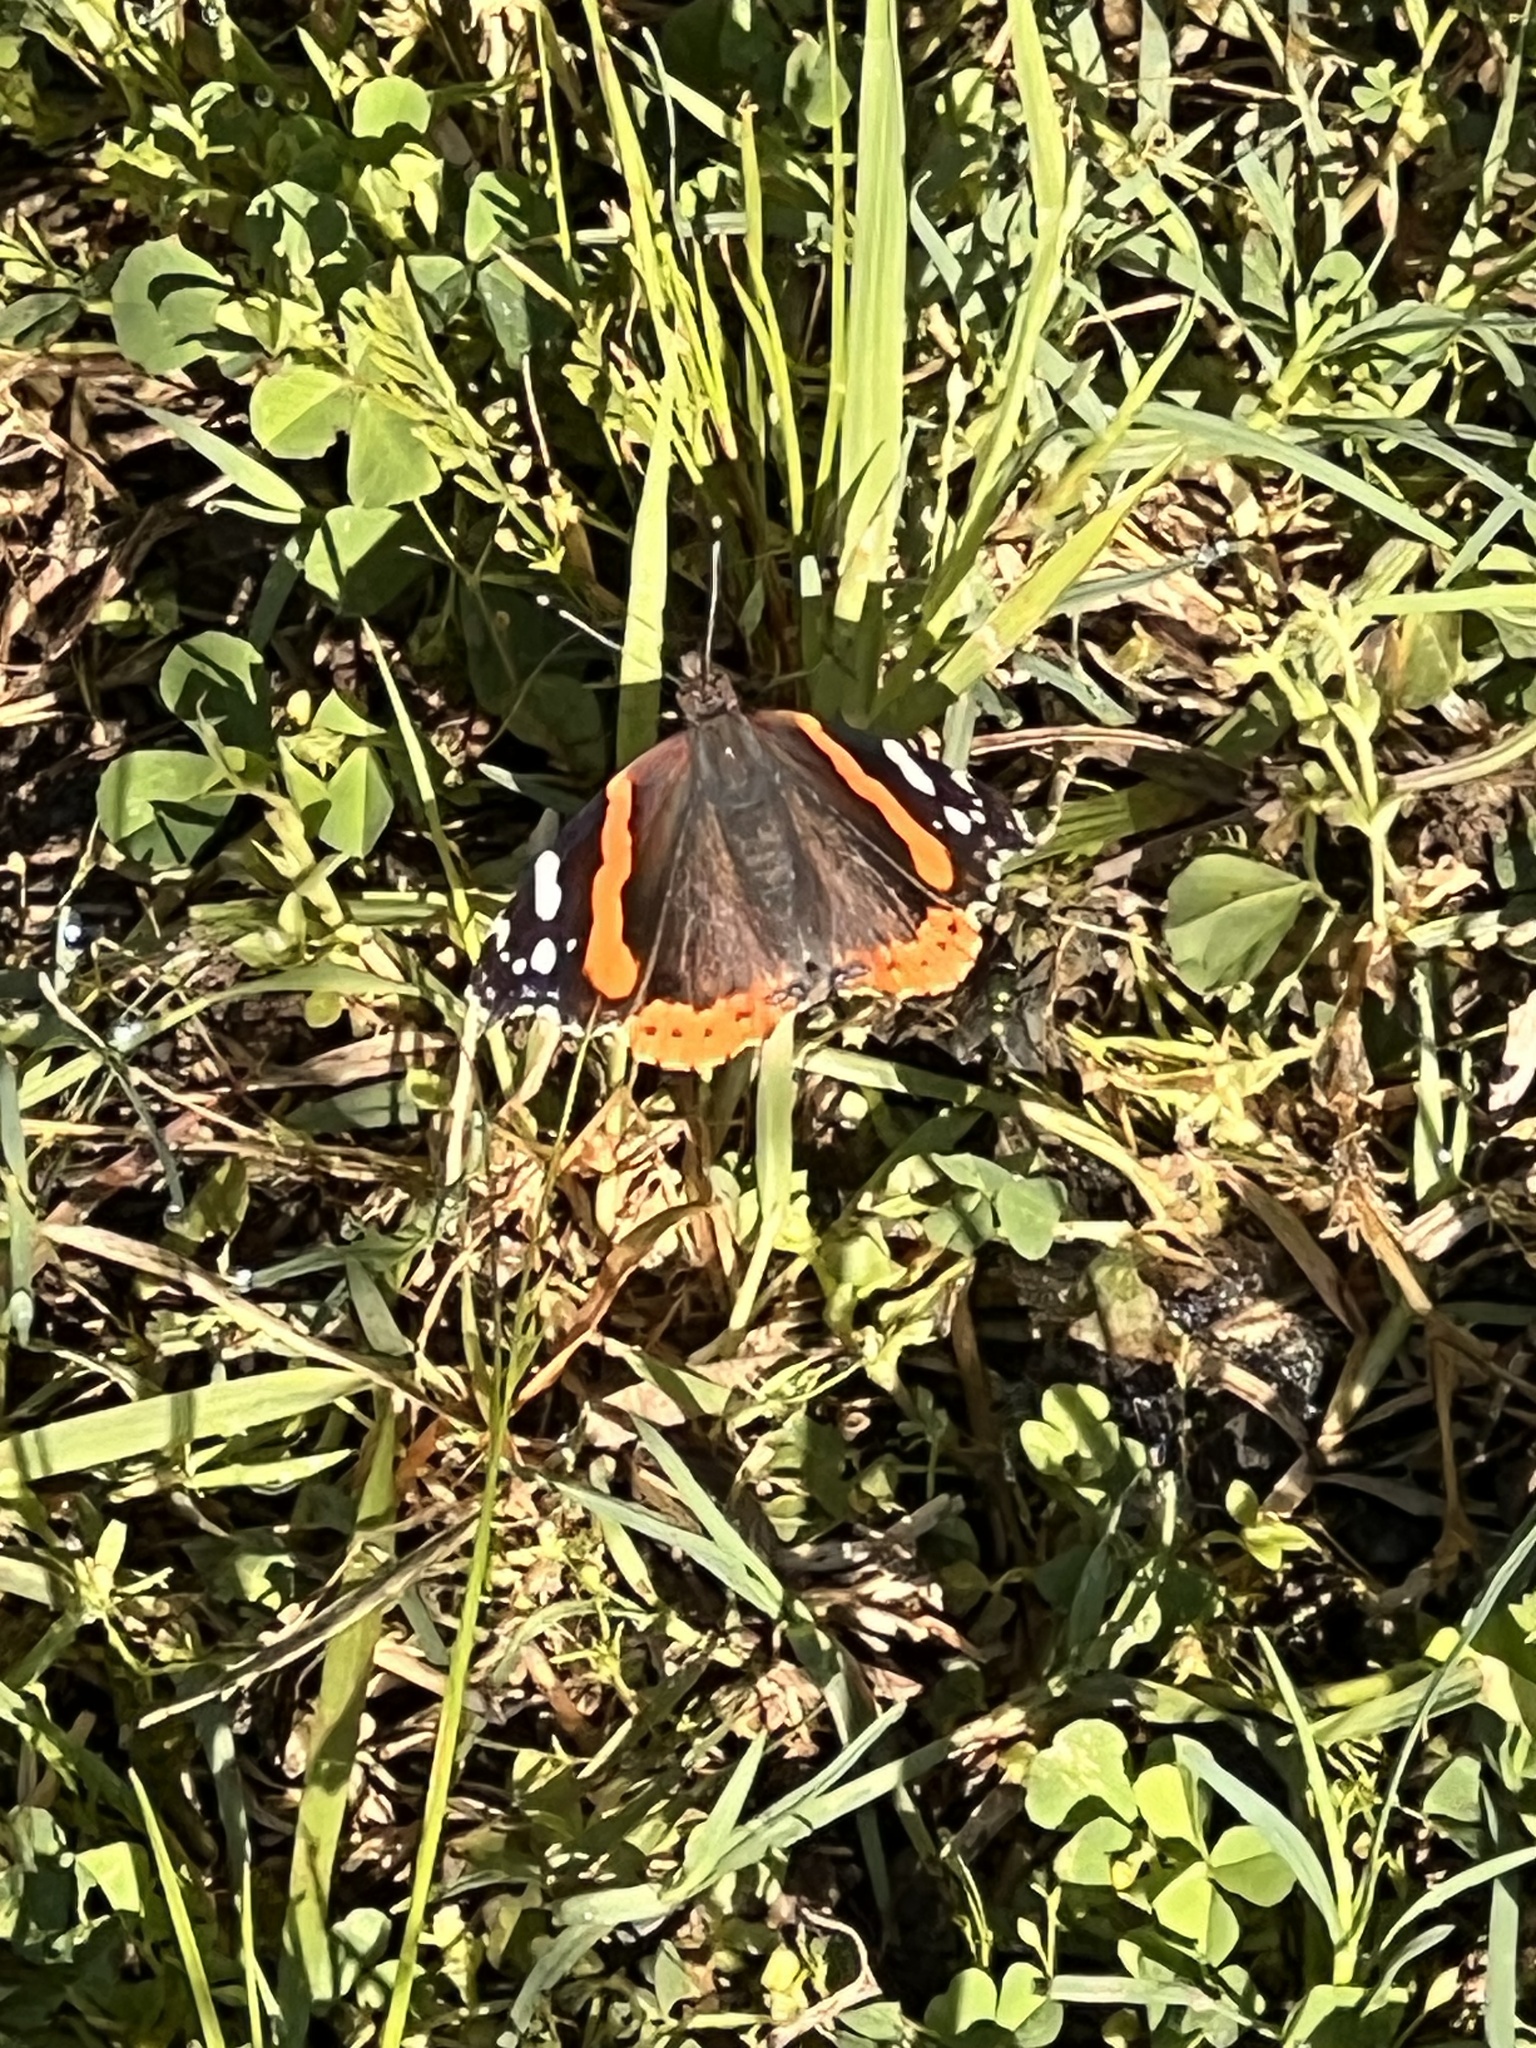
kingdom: Animalia
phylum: Arthropoda
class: Insecta
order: Lepidoptera
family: Nymphalidae
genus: Vanessa
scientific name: Vanessa atalanta
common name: Red admiral
